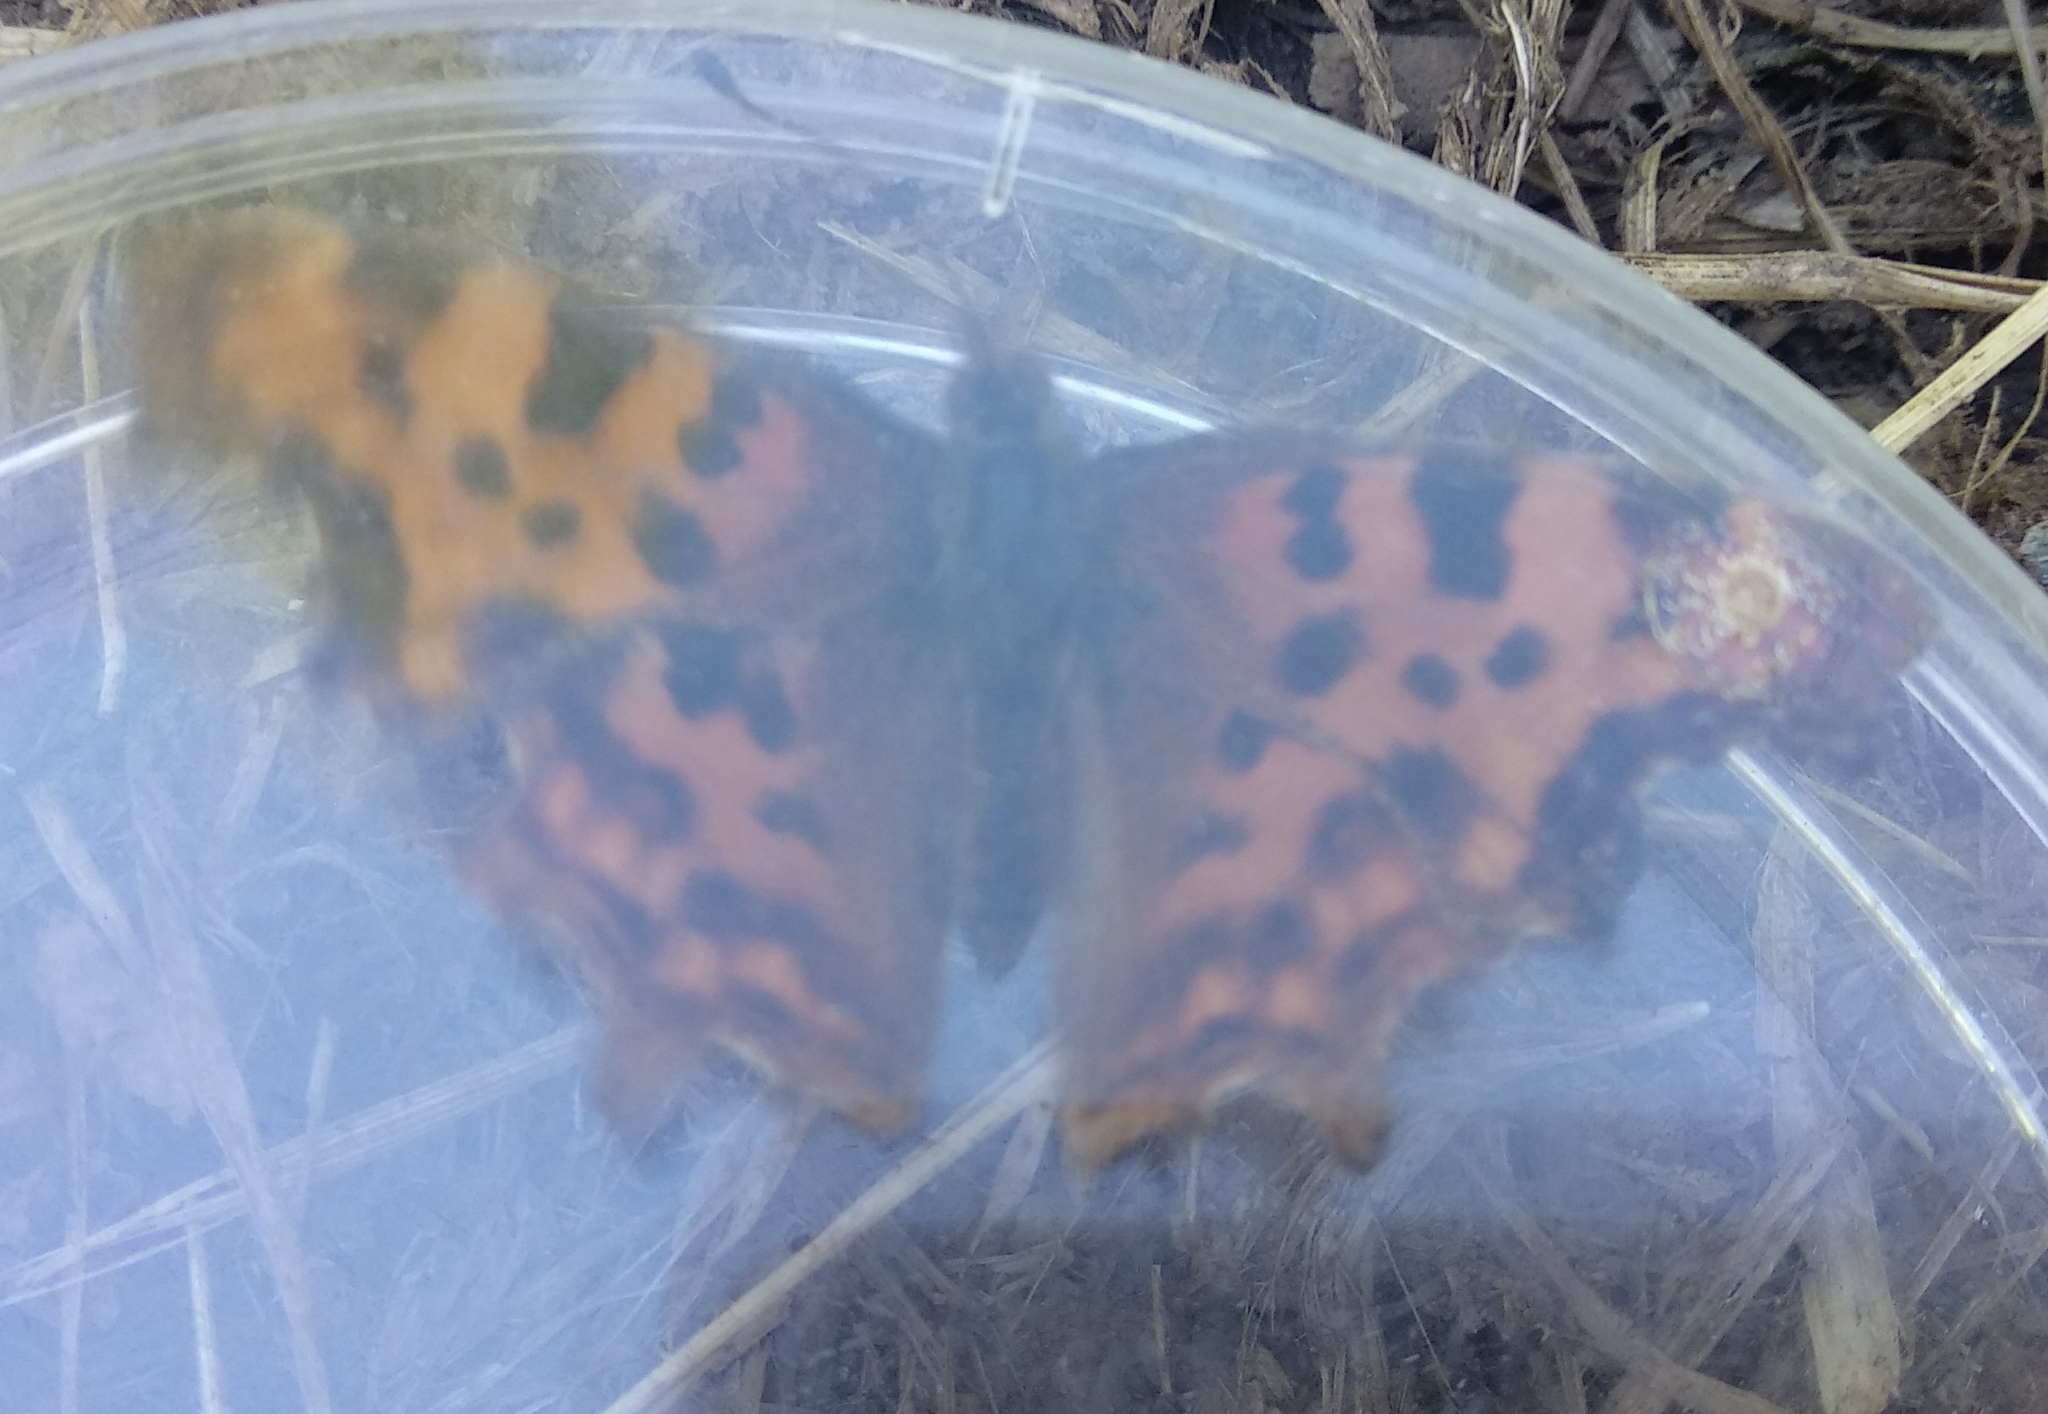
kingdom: Animalia
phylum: Arthropoda
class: Insecta
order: Lepidoptera
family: Nymphalidae
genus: Polygonia
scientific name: Polygonia c-album
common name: Comma
